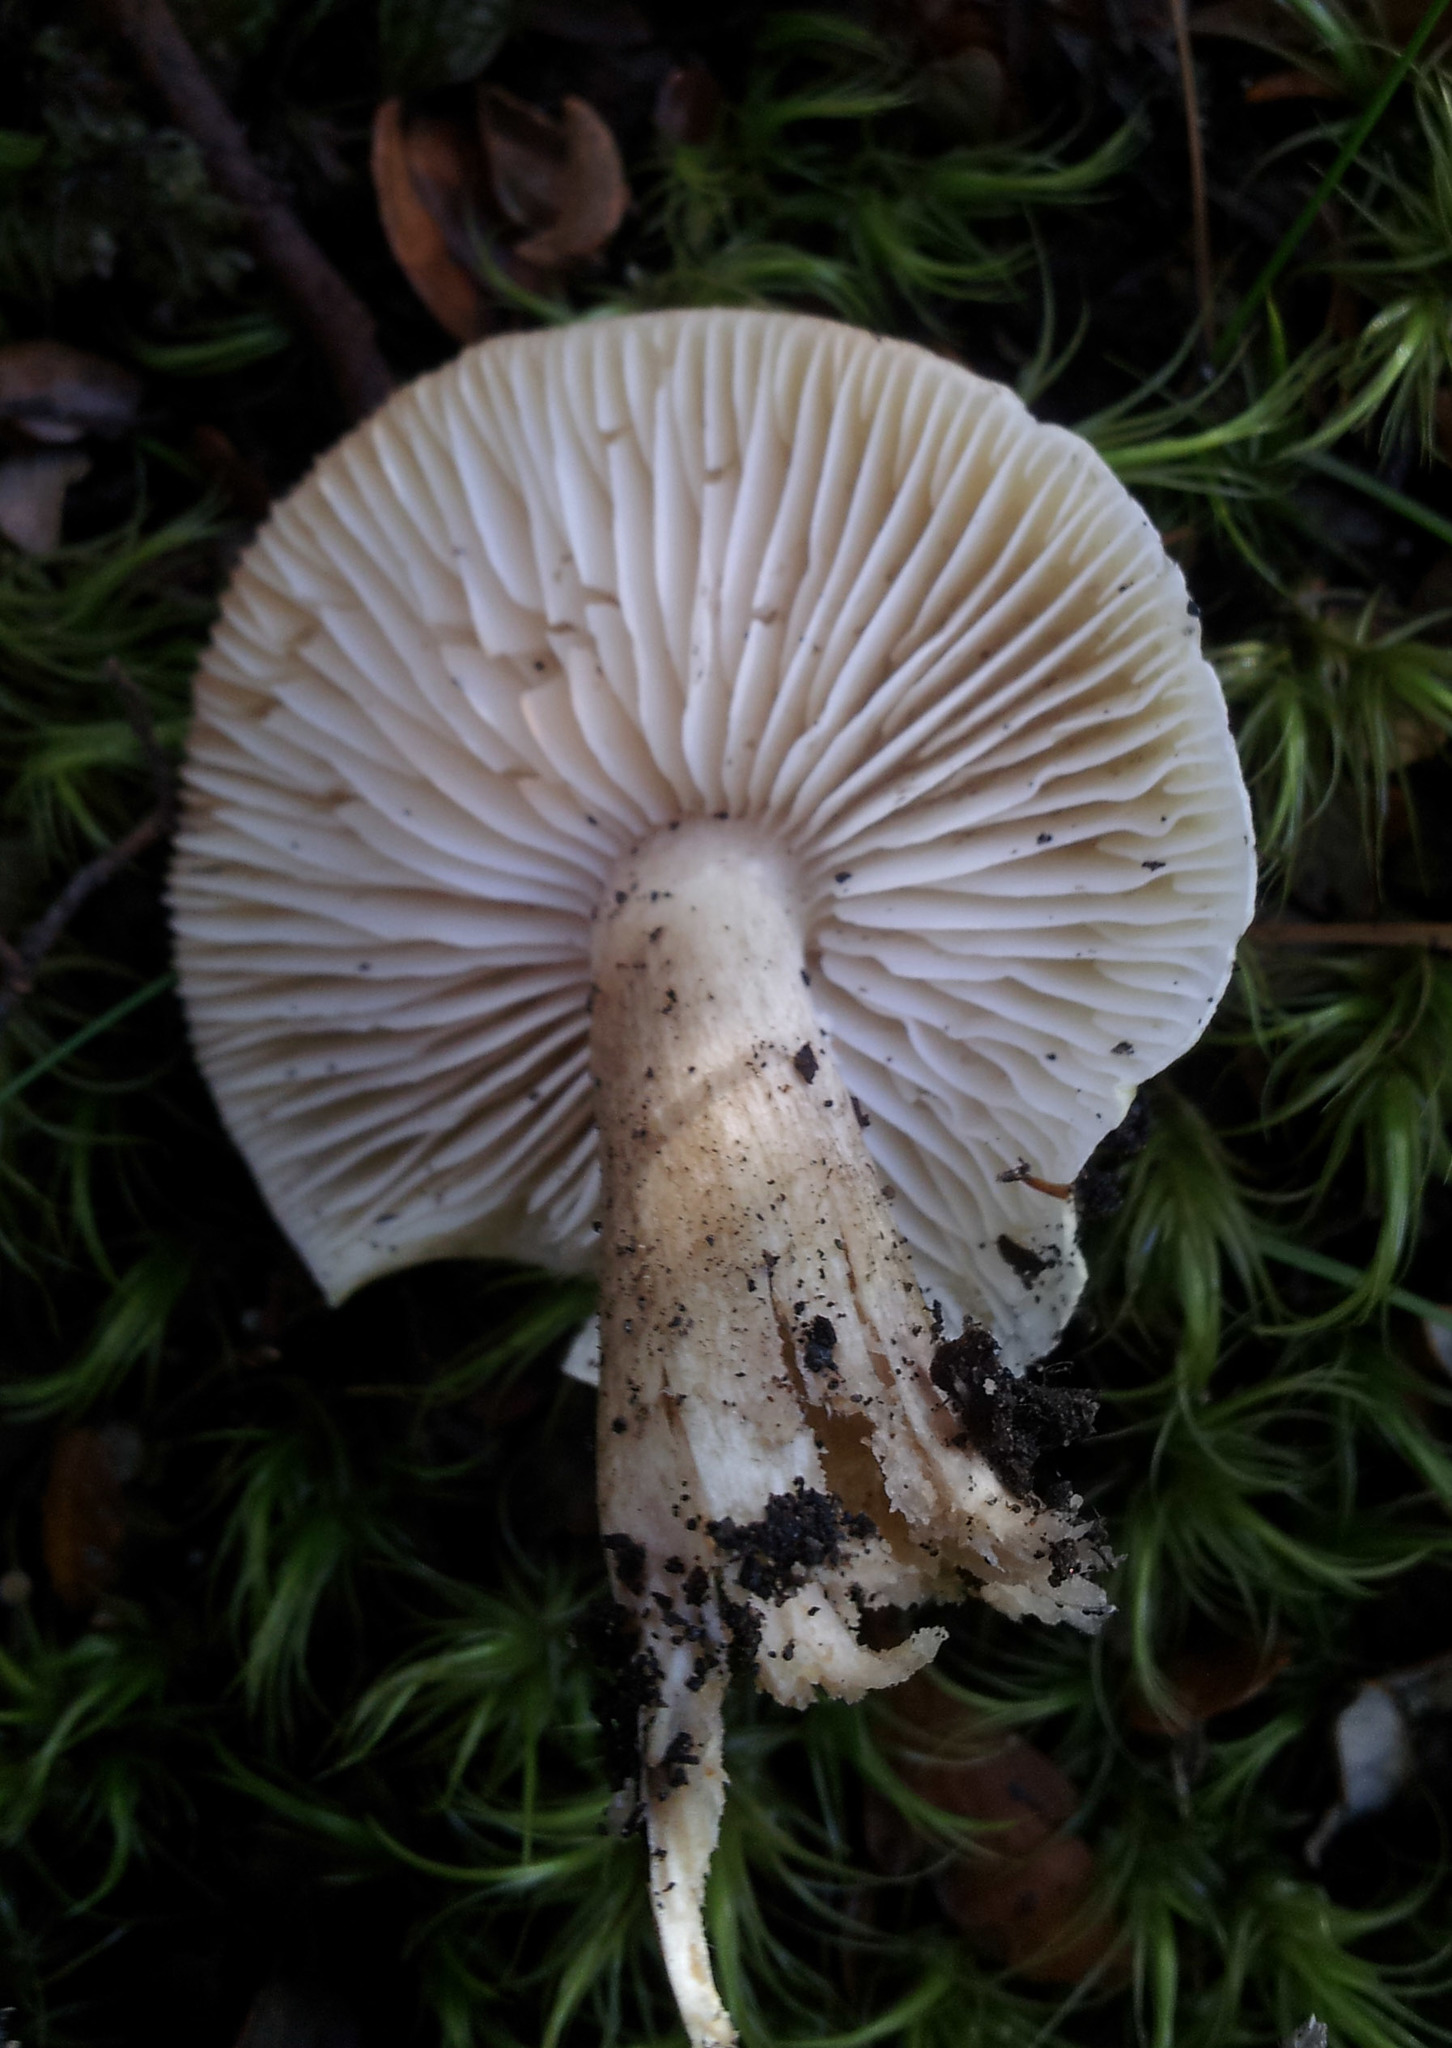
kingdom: Fungi
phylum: Basidiomycota
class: Agaricomycetes
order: Agaricales
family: Tricholomataceae
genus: Tricholoma
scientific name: Tricholoma viridiolivaceum
